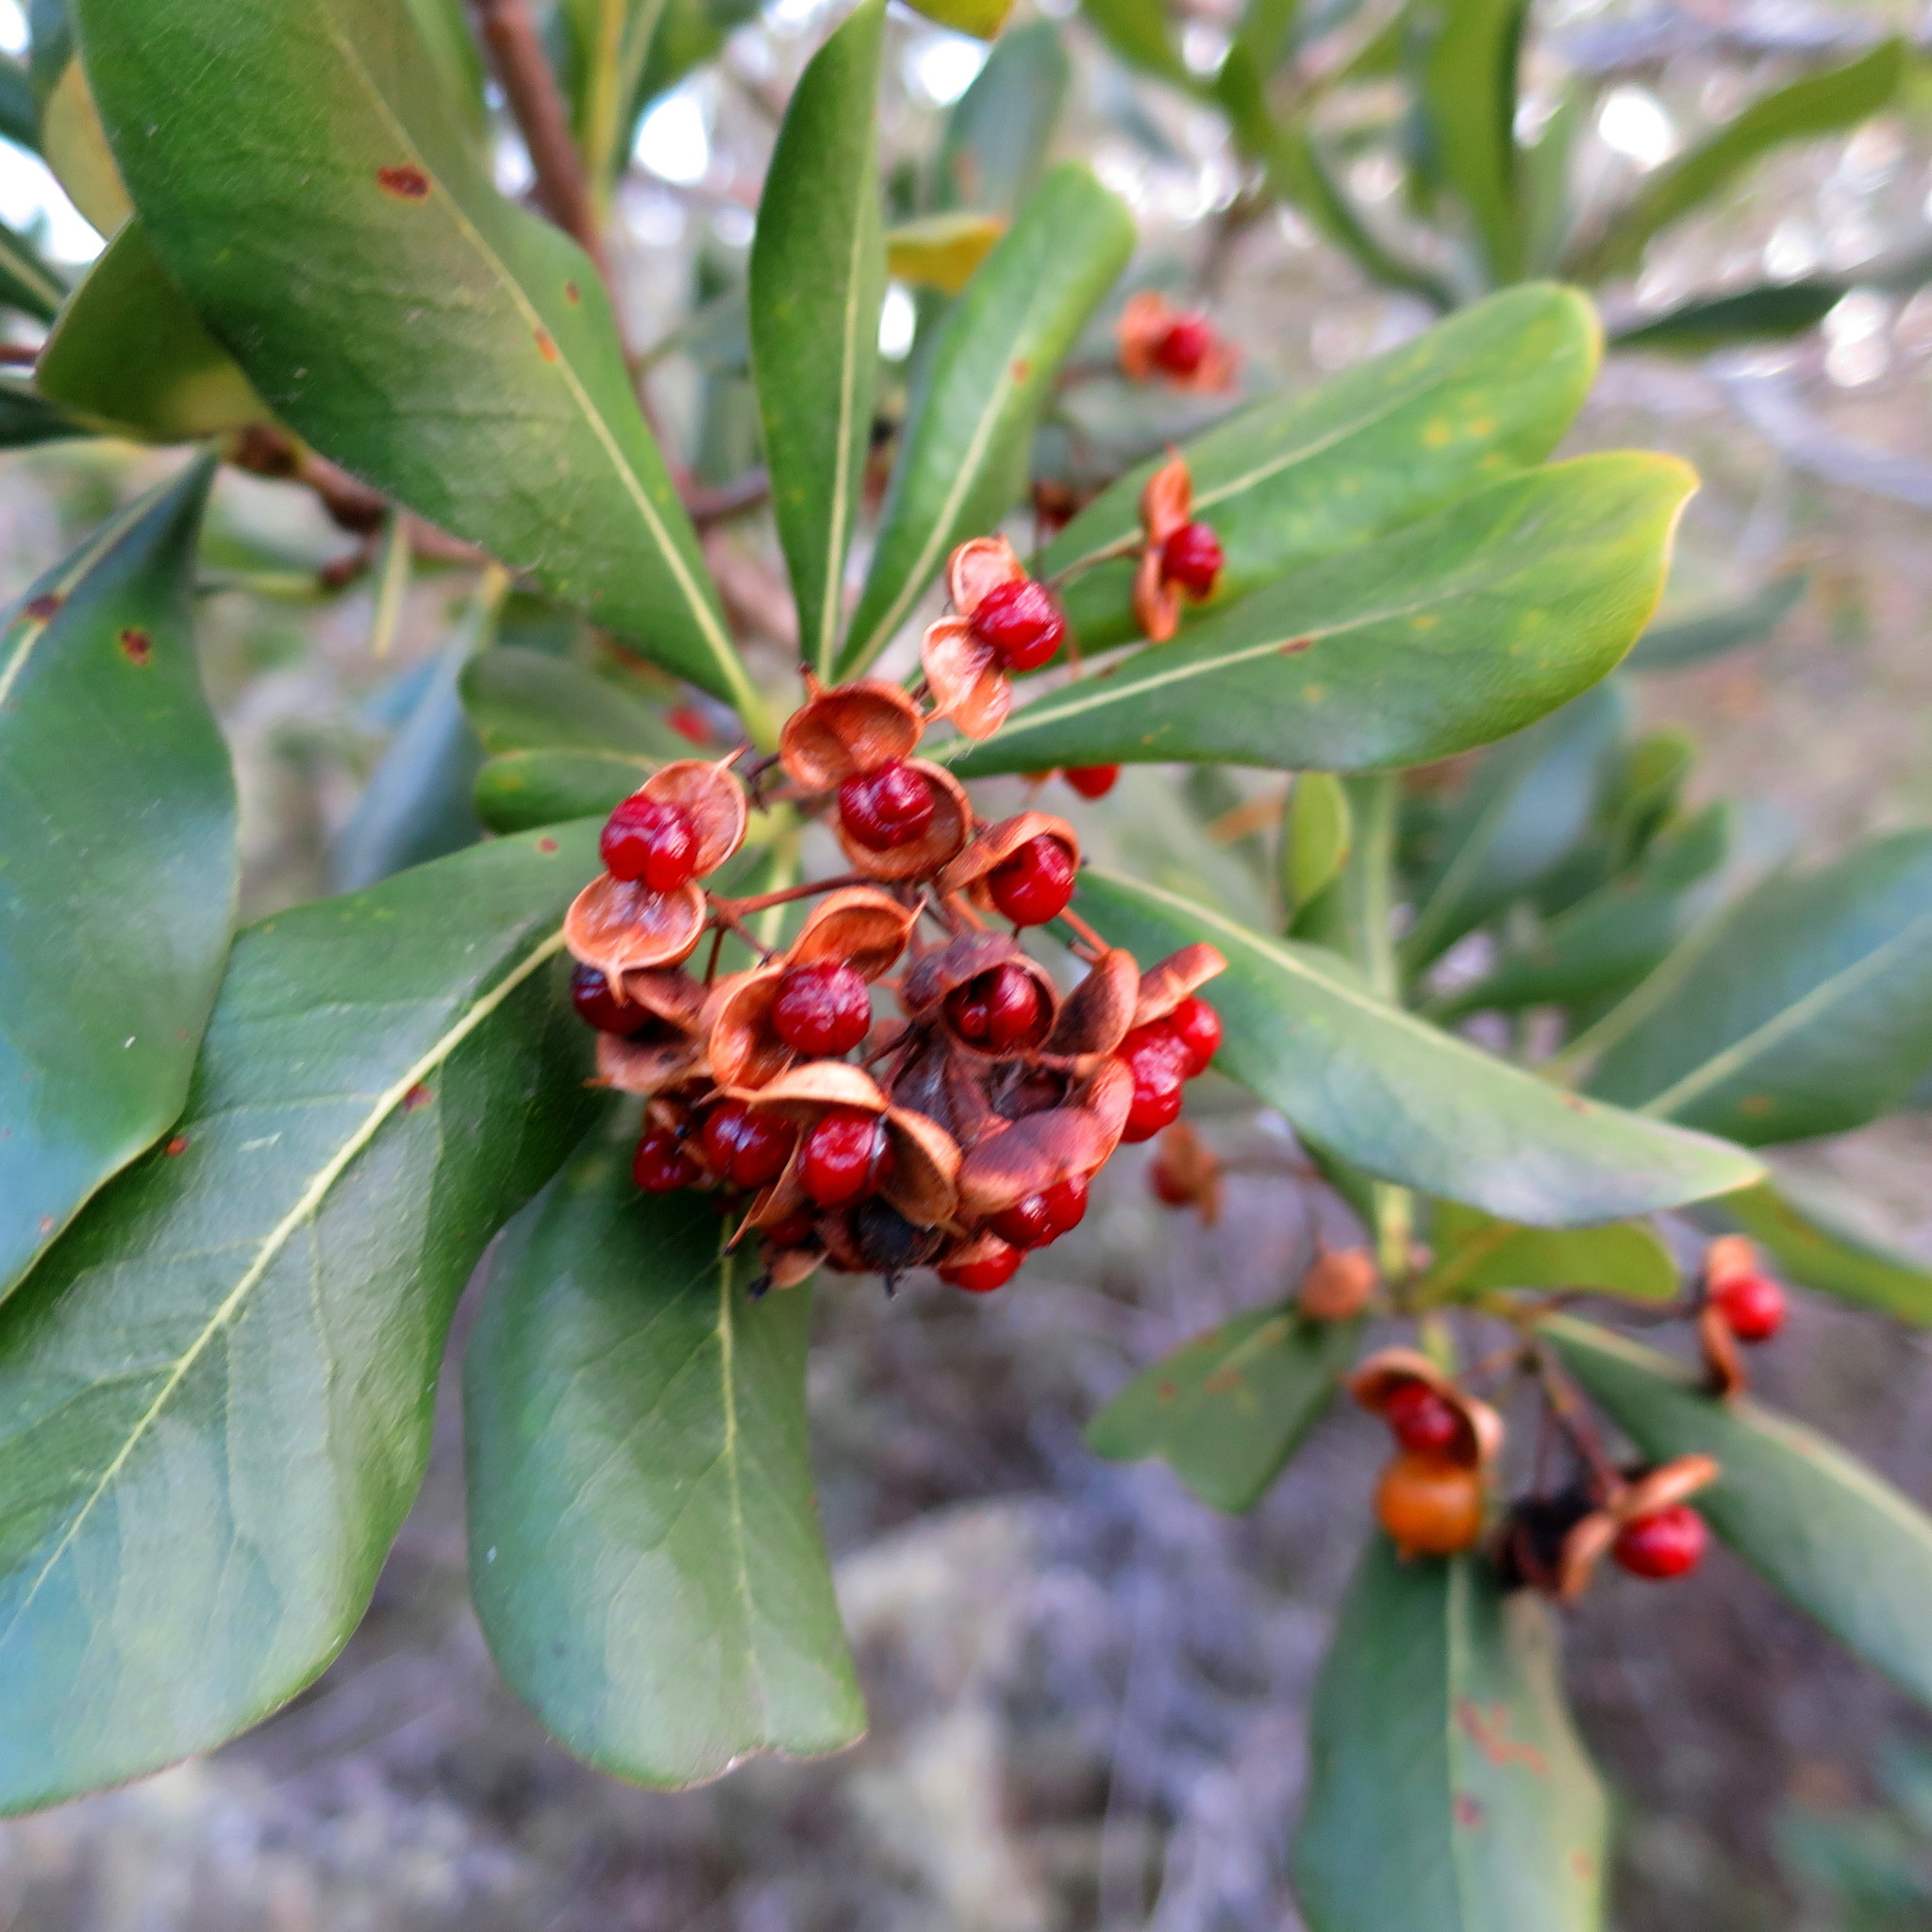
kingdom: Plantae
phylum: Tracheophyta
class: Magnoliopsida
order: Apiales
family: Pittosporaceae
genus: Pittosporum
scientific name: Pittosporum viridiflorum
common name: Cape cheesewood
